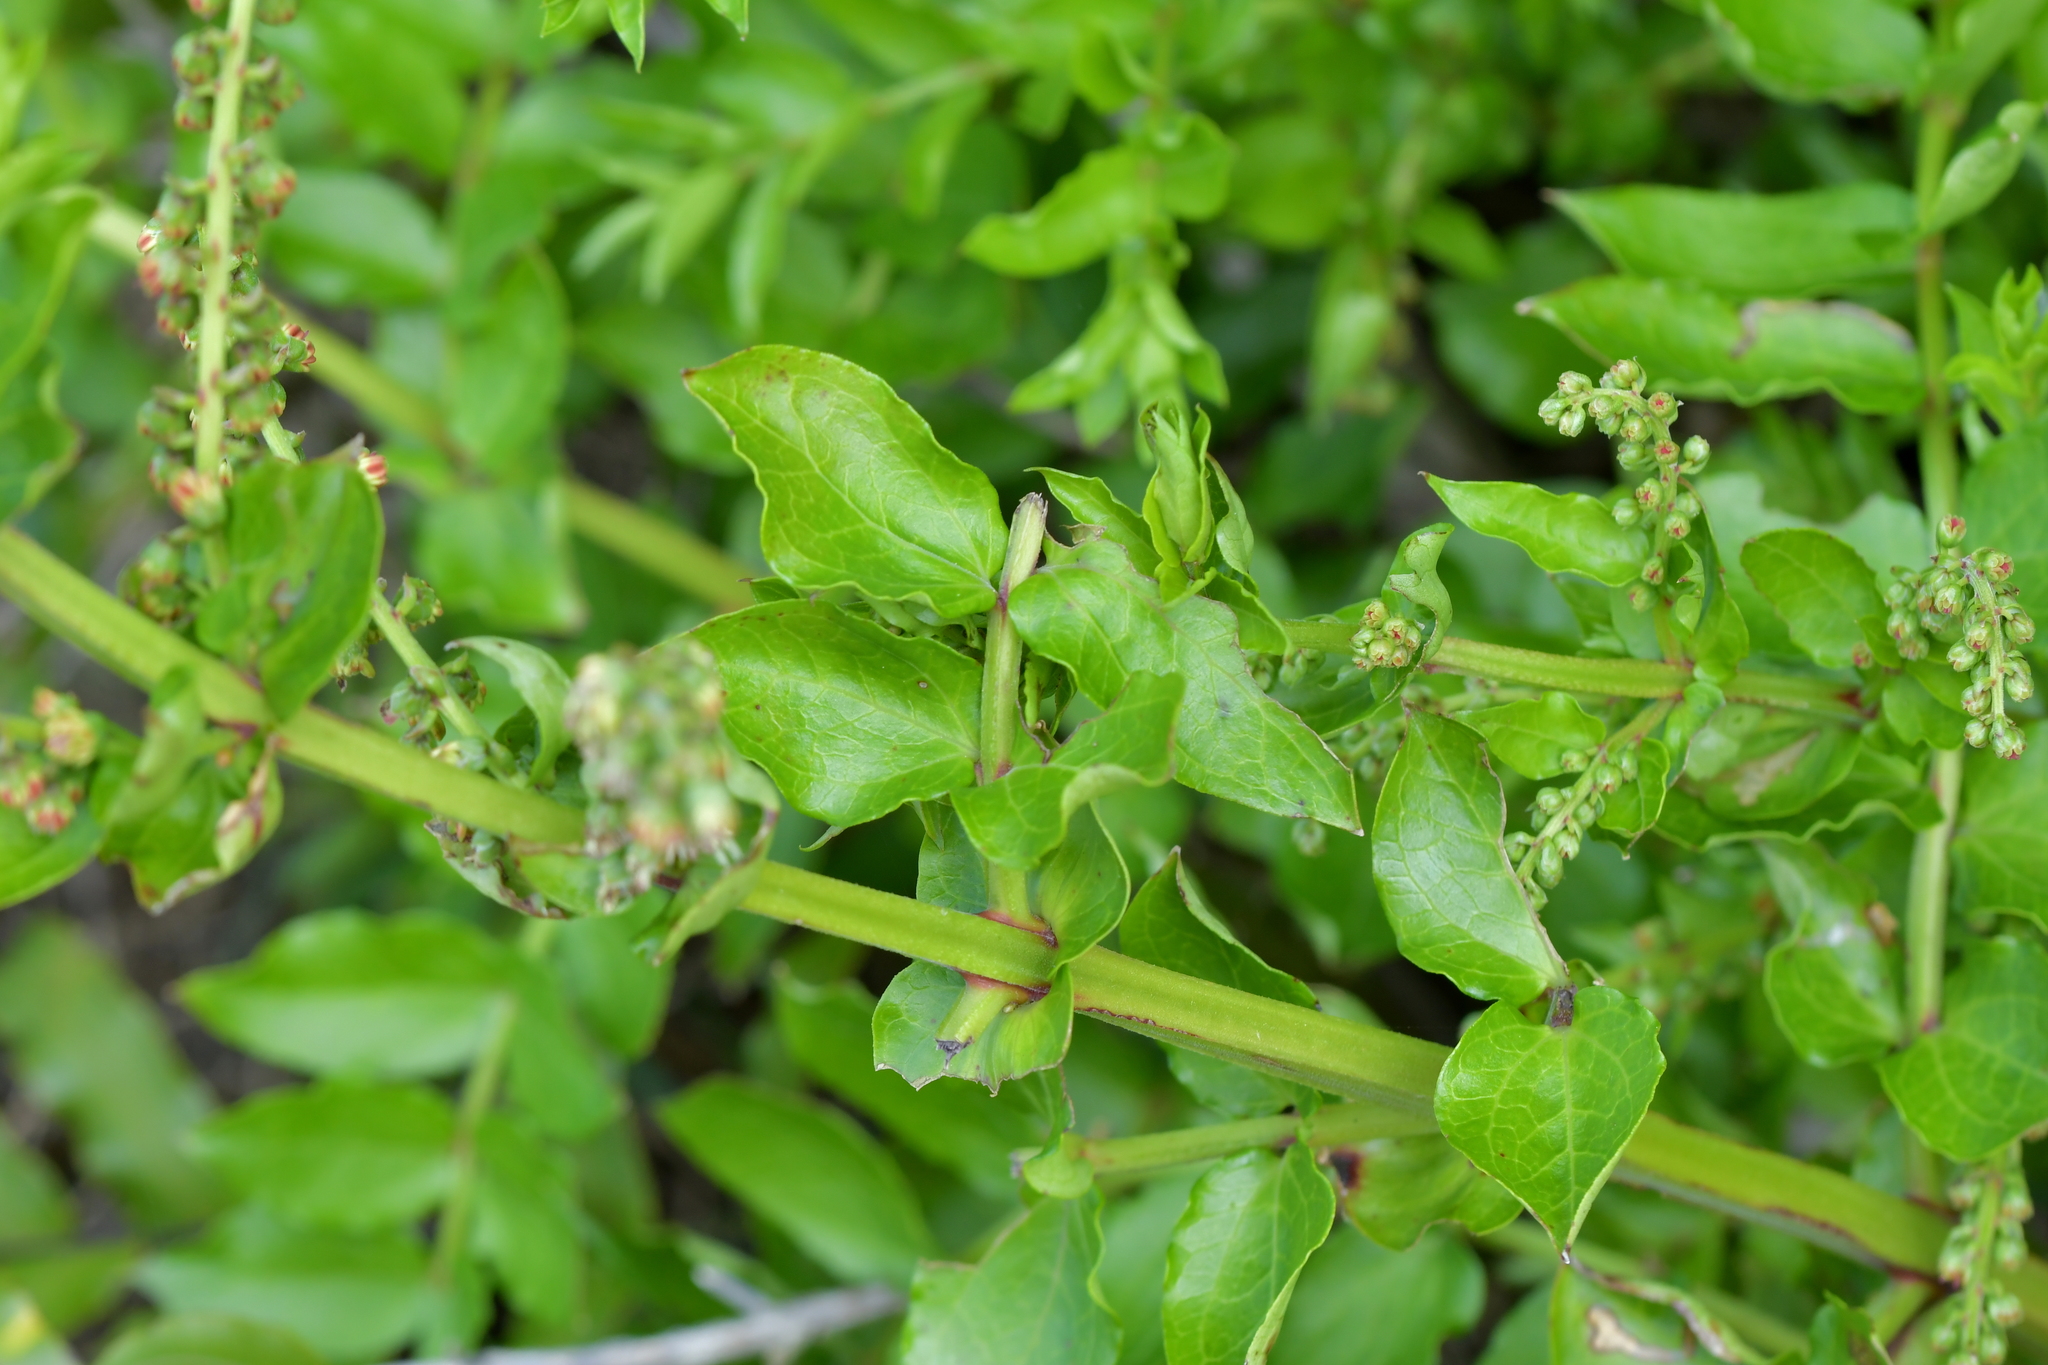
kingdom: Plantae
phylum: Tracheophyta
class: Magnoliopsida
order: Cucurbitales
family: Coriariaceae
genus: Coriaria
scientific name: Coriaria sarmentosa
